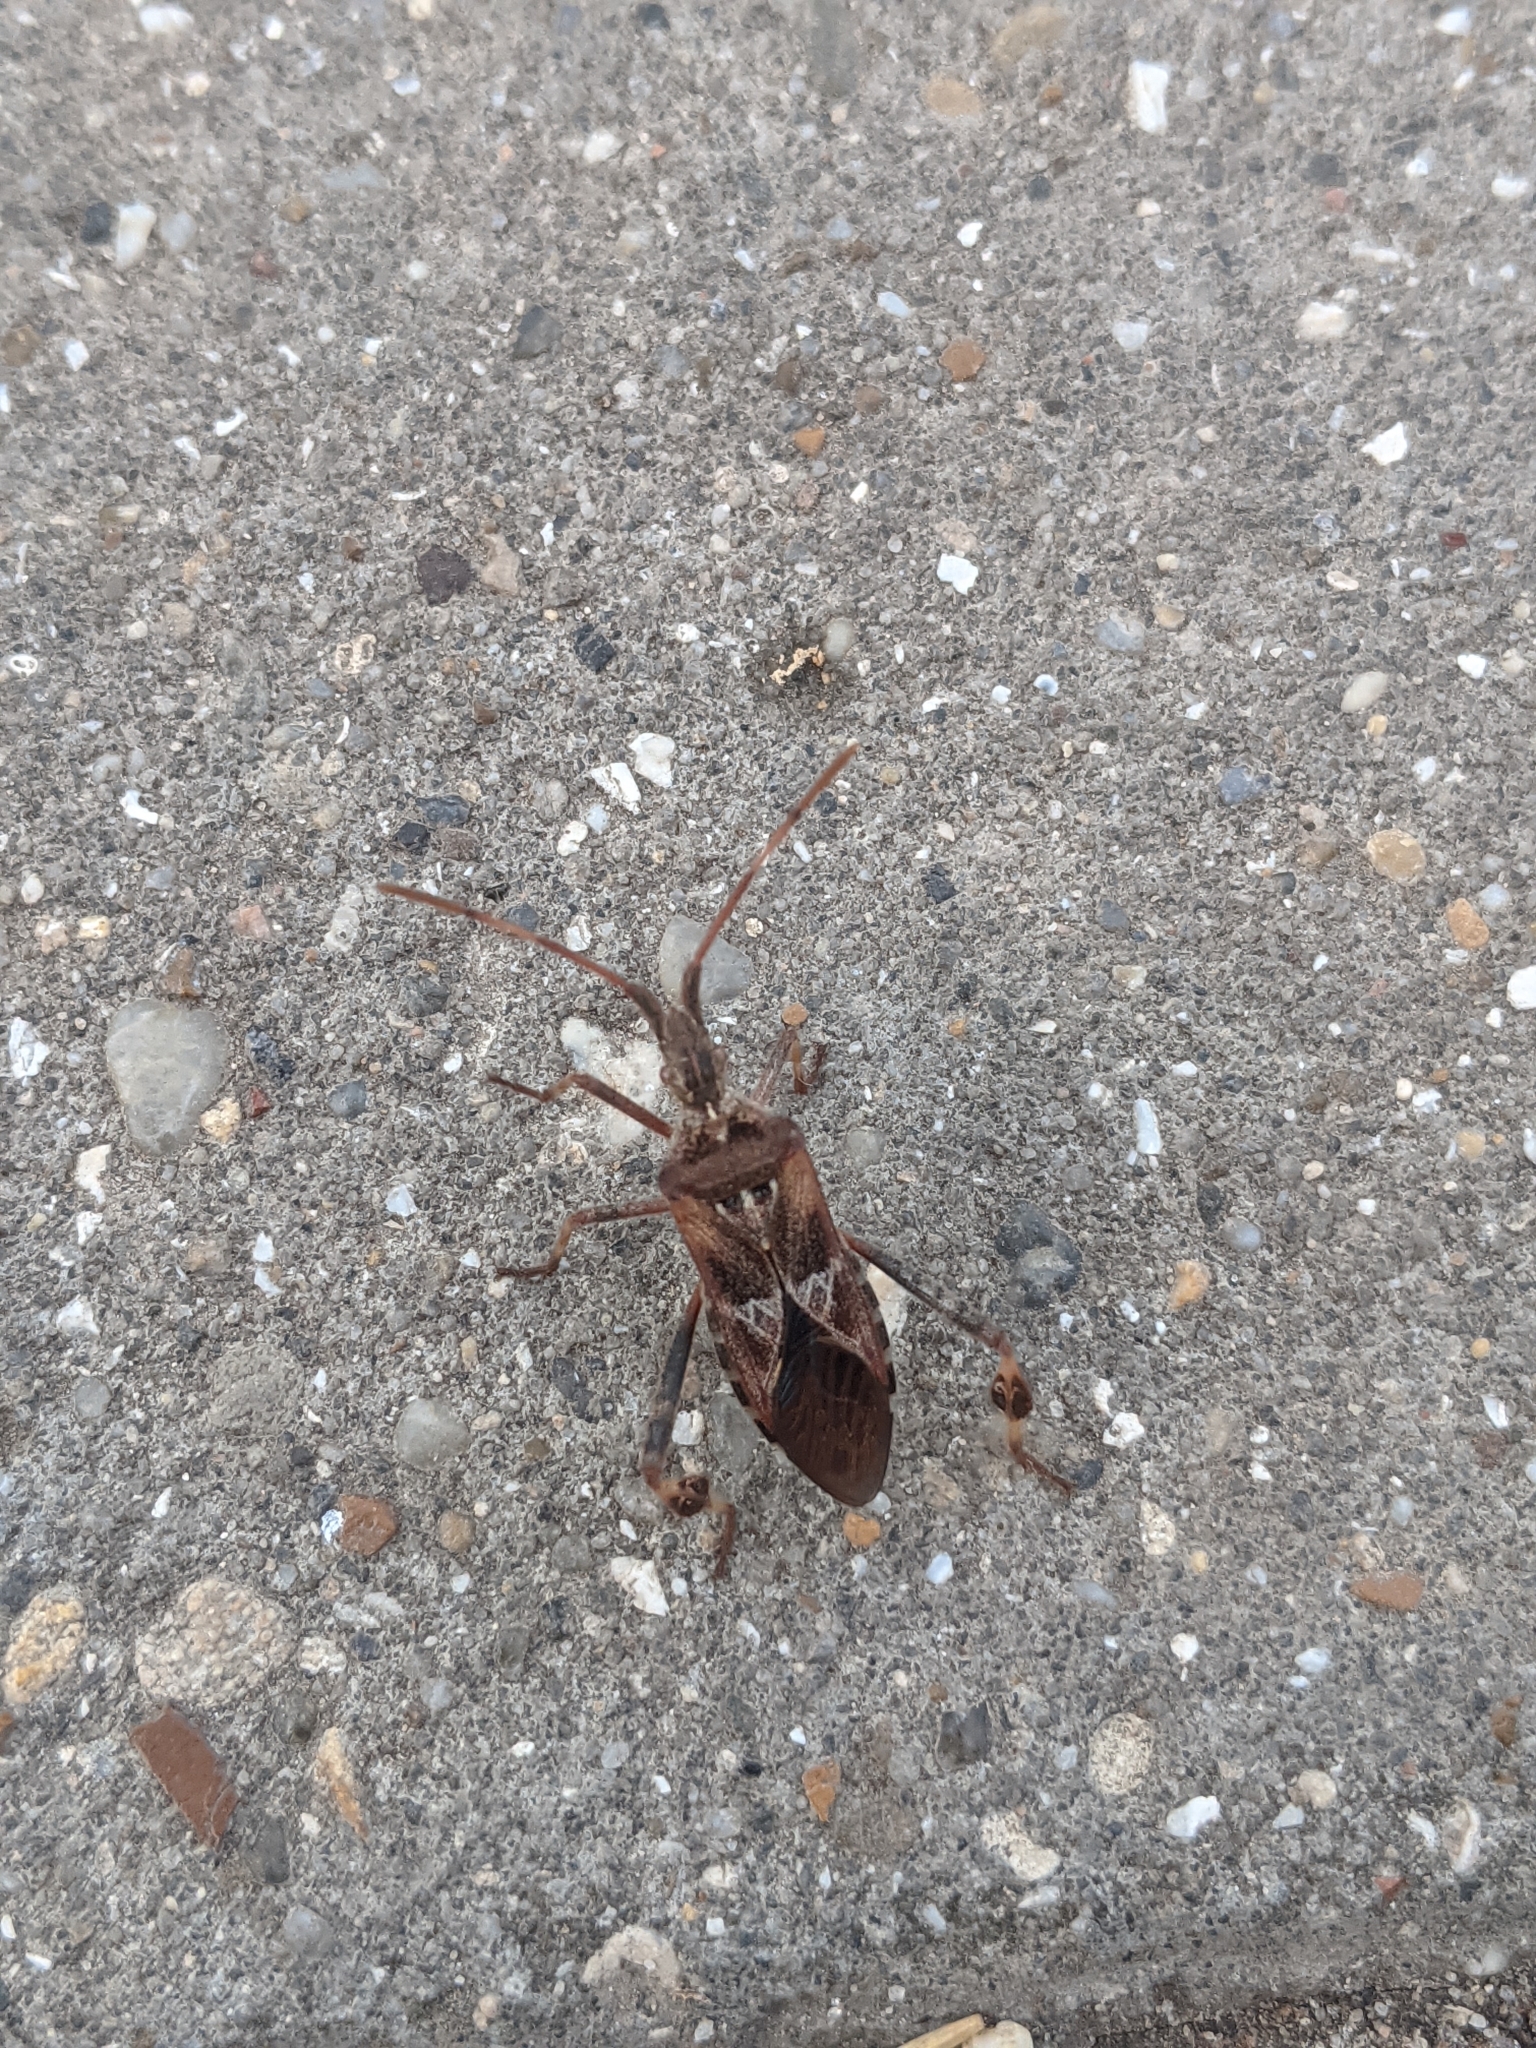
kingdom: Animalia
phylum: Arthropoda
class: Insecta
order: Hemiptera
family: Coreidae
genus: Leptoglossus
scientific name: Leptoglossus occidentalis
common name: Western conifer-seed bug
